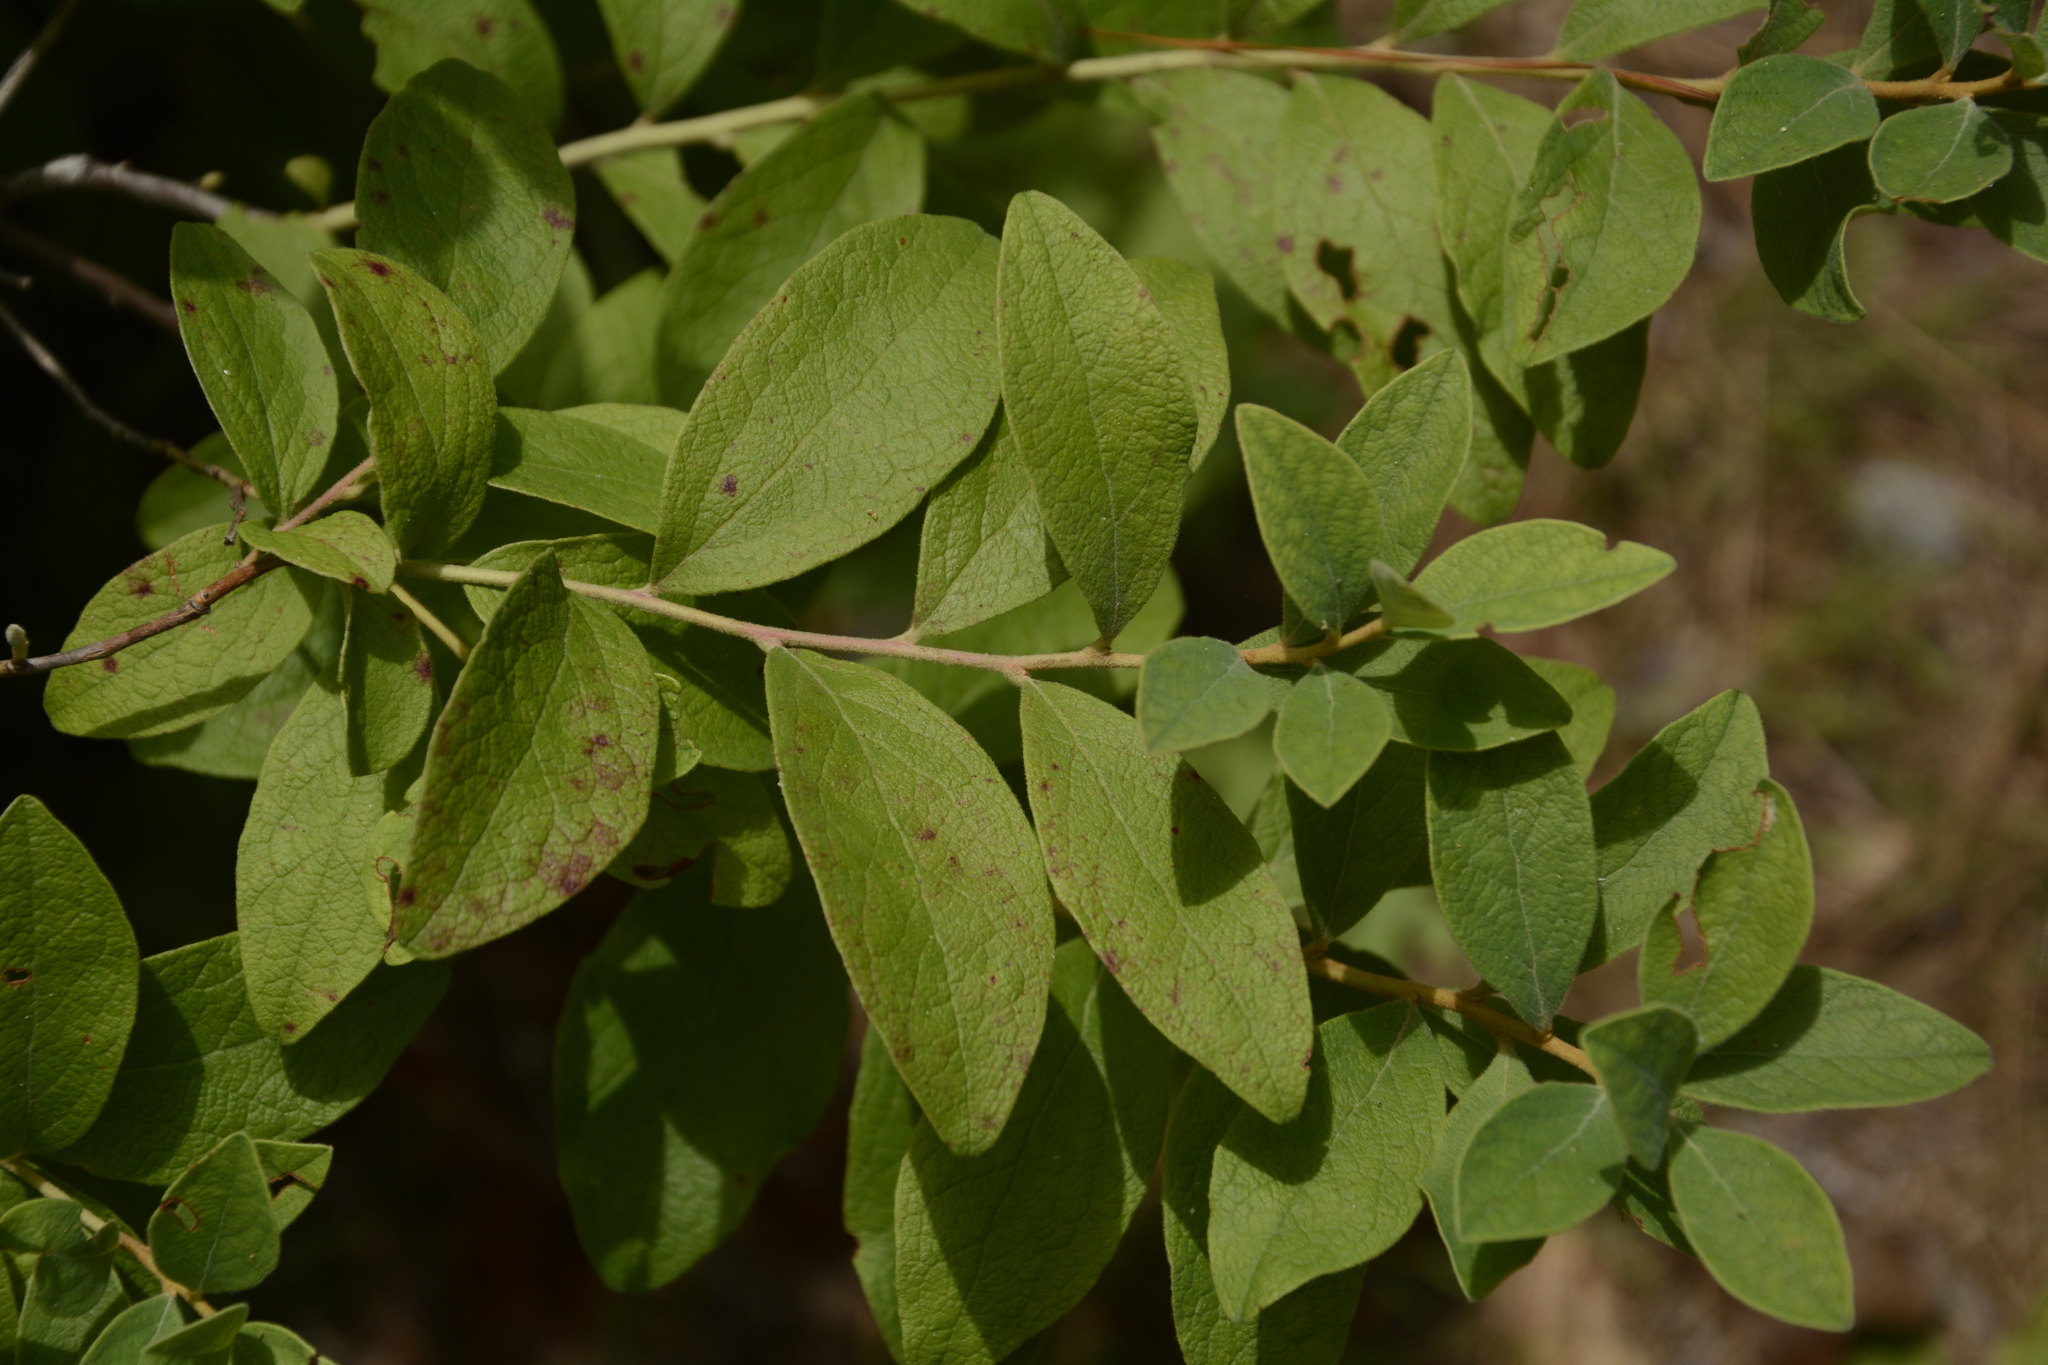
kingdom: Plantae
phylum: Tracheophyta
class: Magnoliopsida
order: Ericales
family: Ericaceae
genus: Gaylussacia
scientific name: Gaylussacia tomentosa
